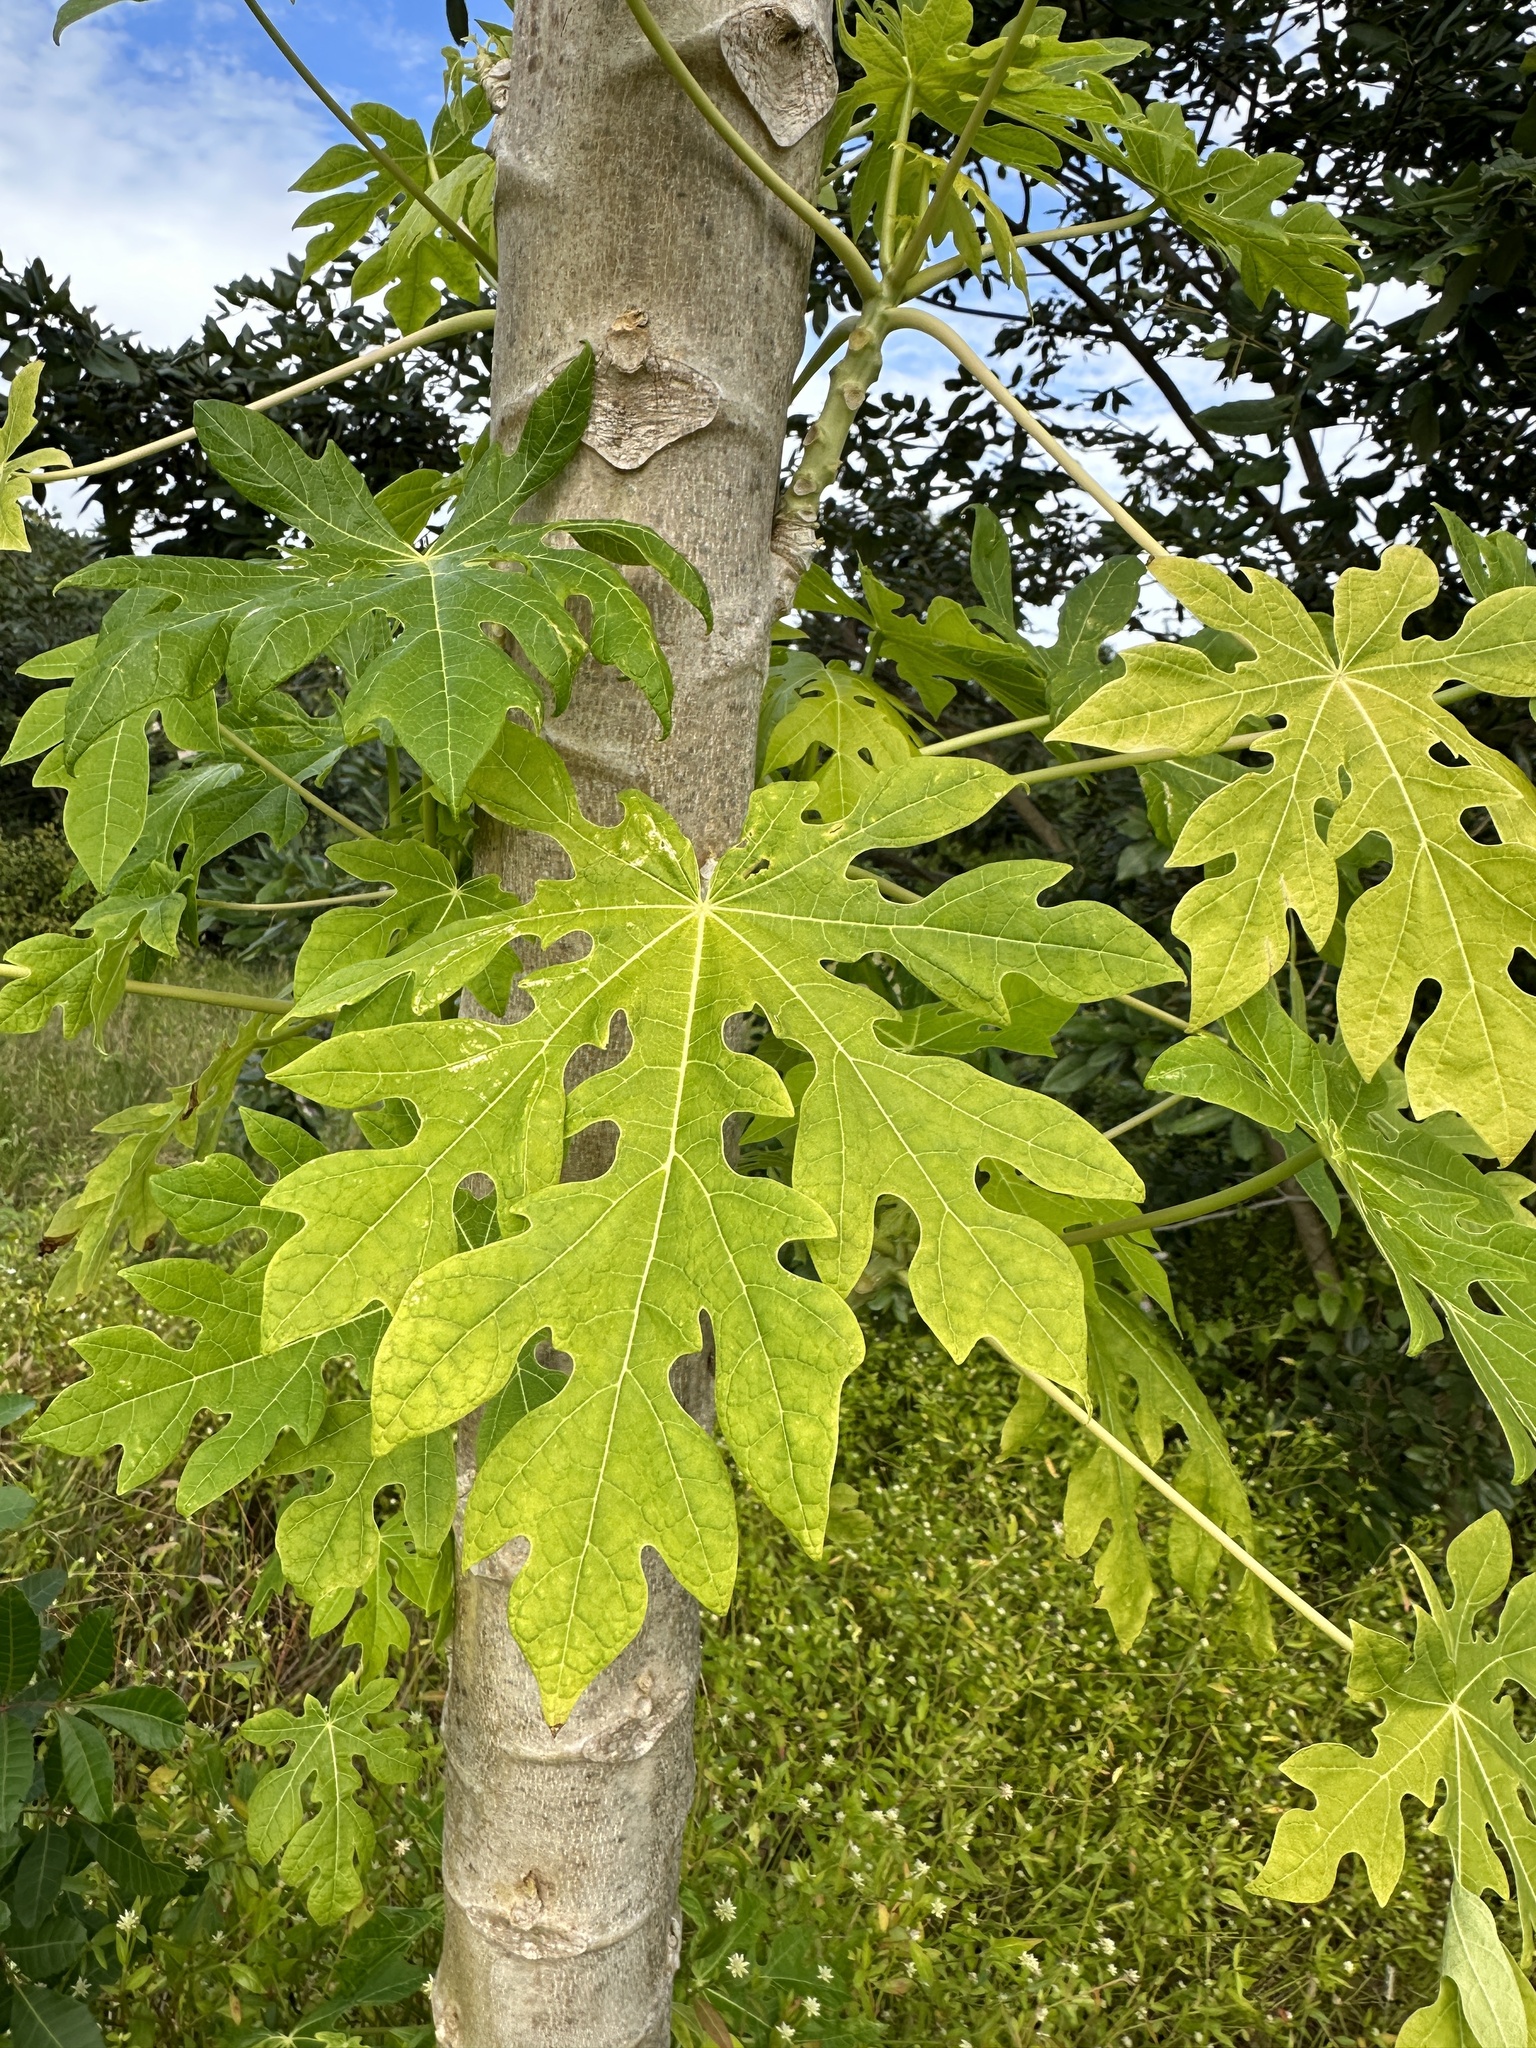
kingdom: Plantae
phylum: Tracheophyta
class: Magnoliopsida
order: Brassicales
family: Caricaceae
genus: Carica
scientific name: Carica papaya
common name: Papaya
